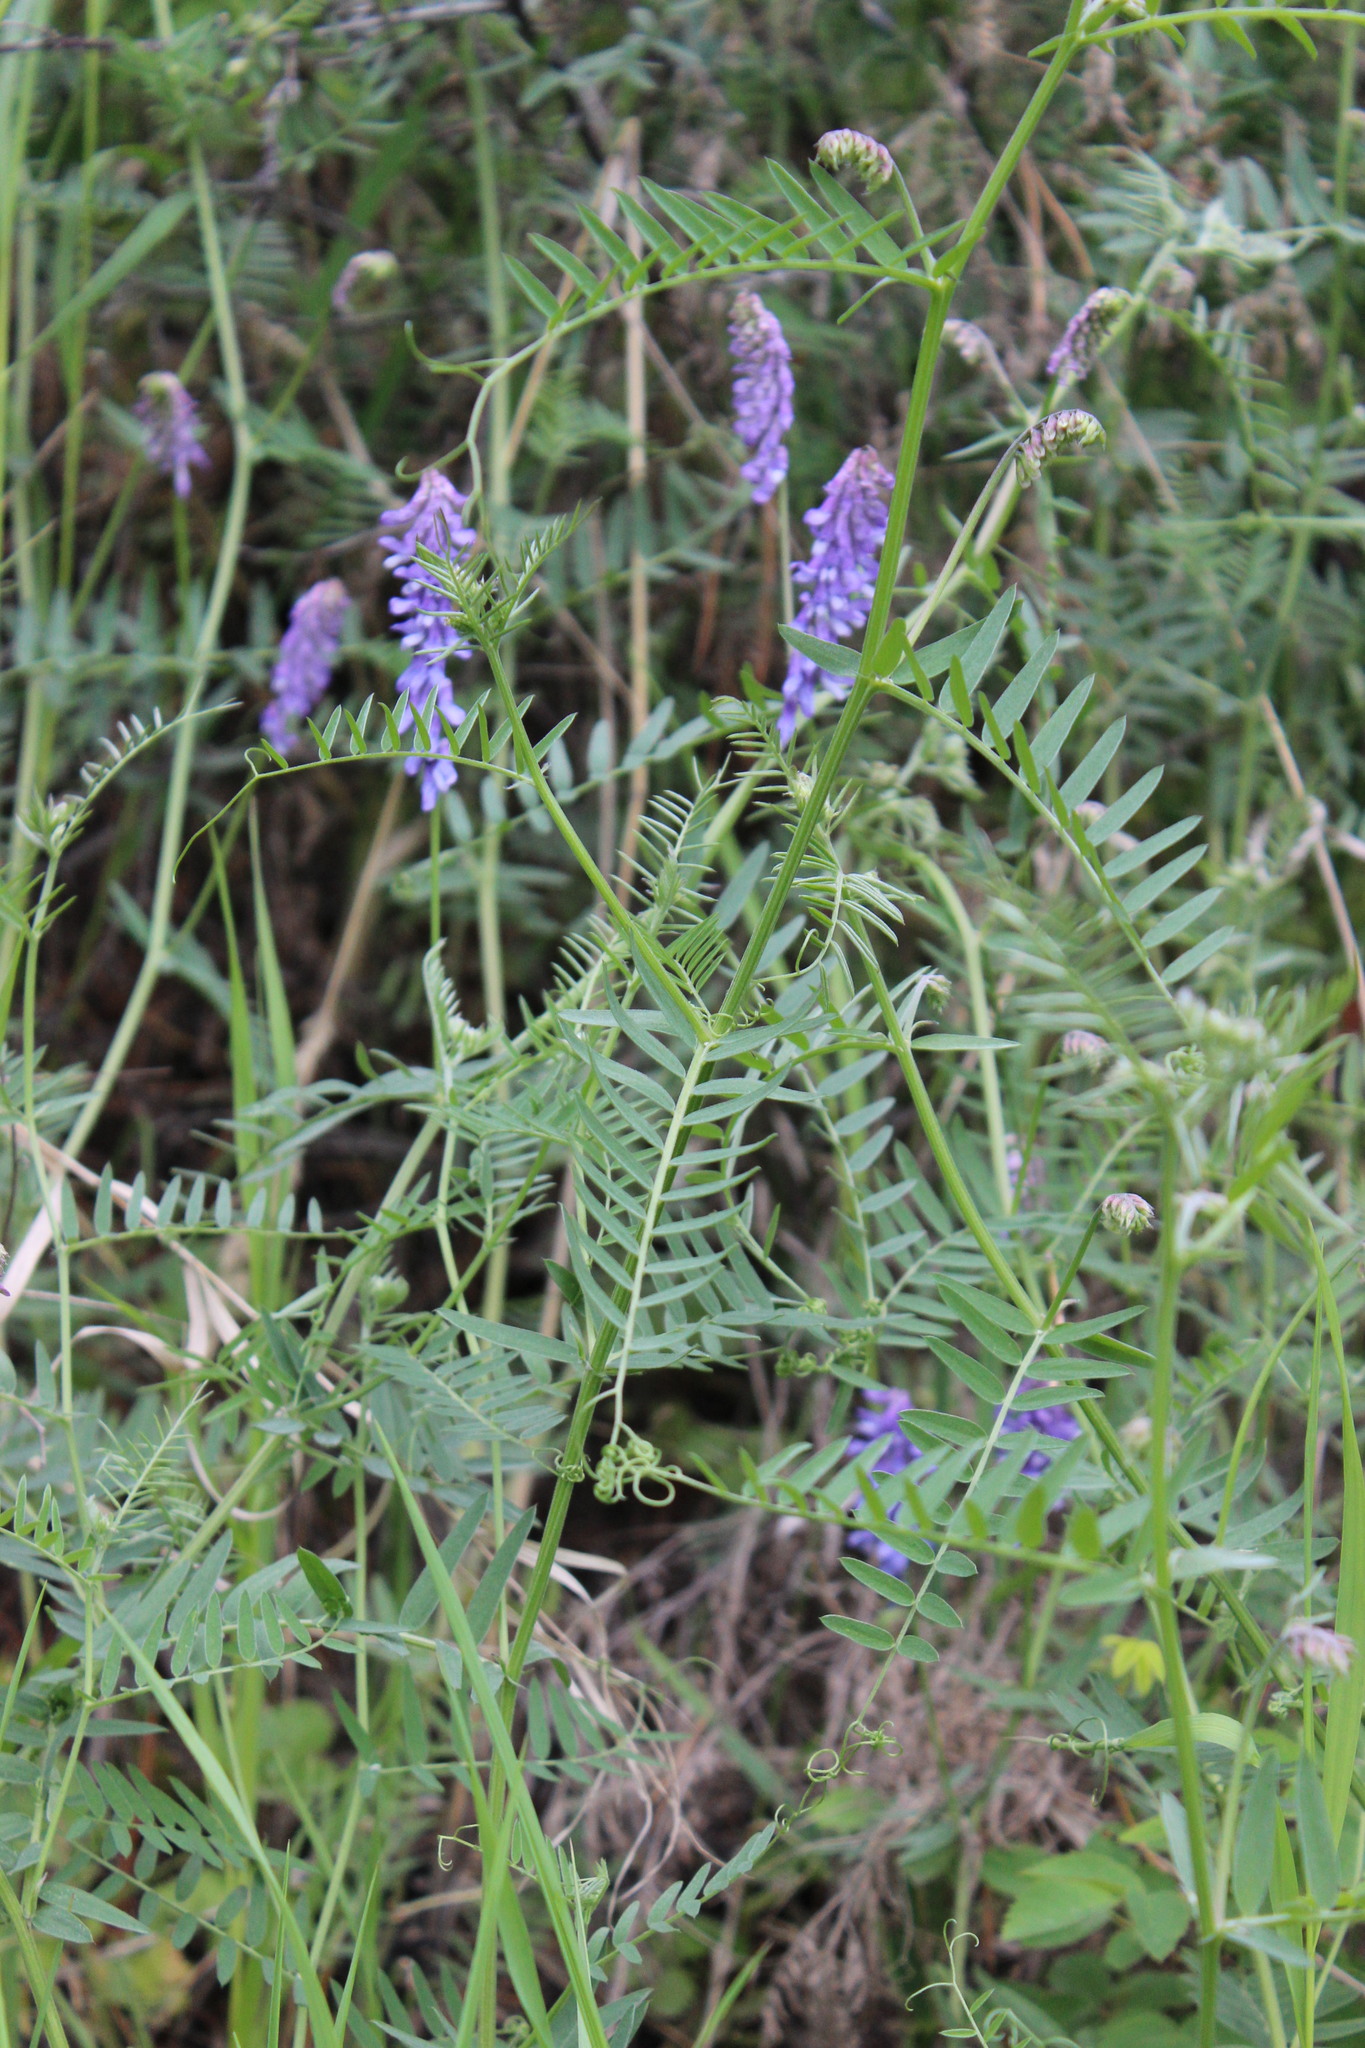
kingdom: Plantae
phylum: Tracheophyta
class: Magnoliopsida
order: Fabales
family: Fabaceae
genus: Vicia
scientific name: Vicia cracca
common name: Bird vetch
